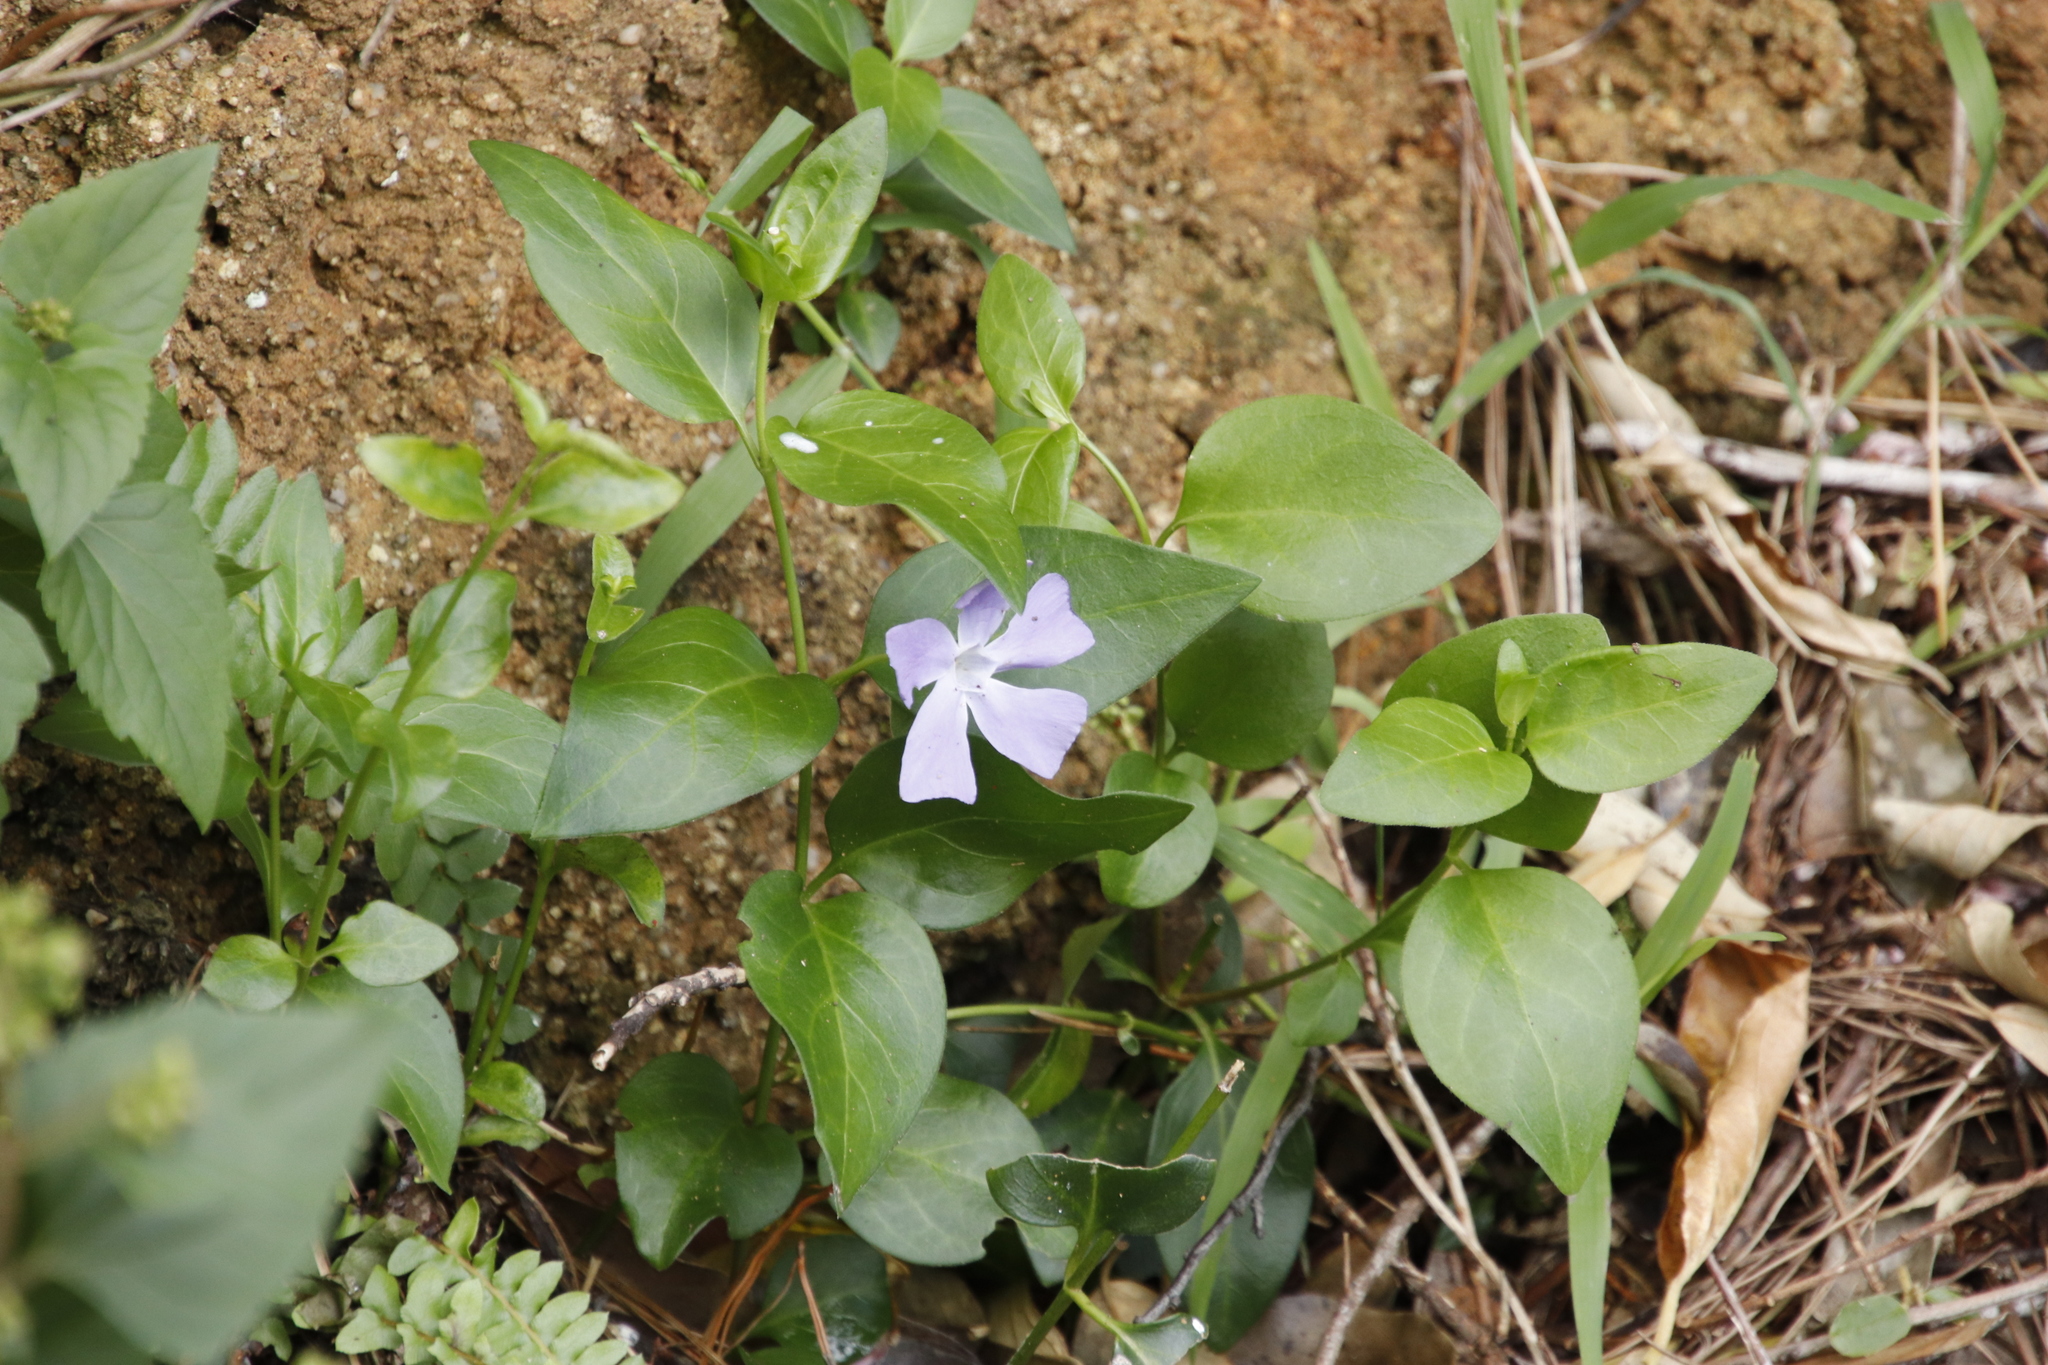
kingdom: Plantae
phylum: Tracheophyta
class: Magnoliopsida
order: Gentianales
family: Apocynaceae
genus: Vinca
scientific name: Vinca major
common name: Greater periwinkle
